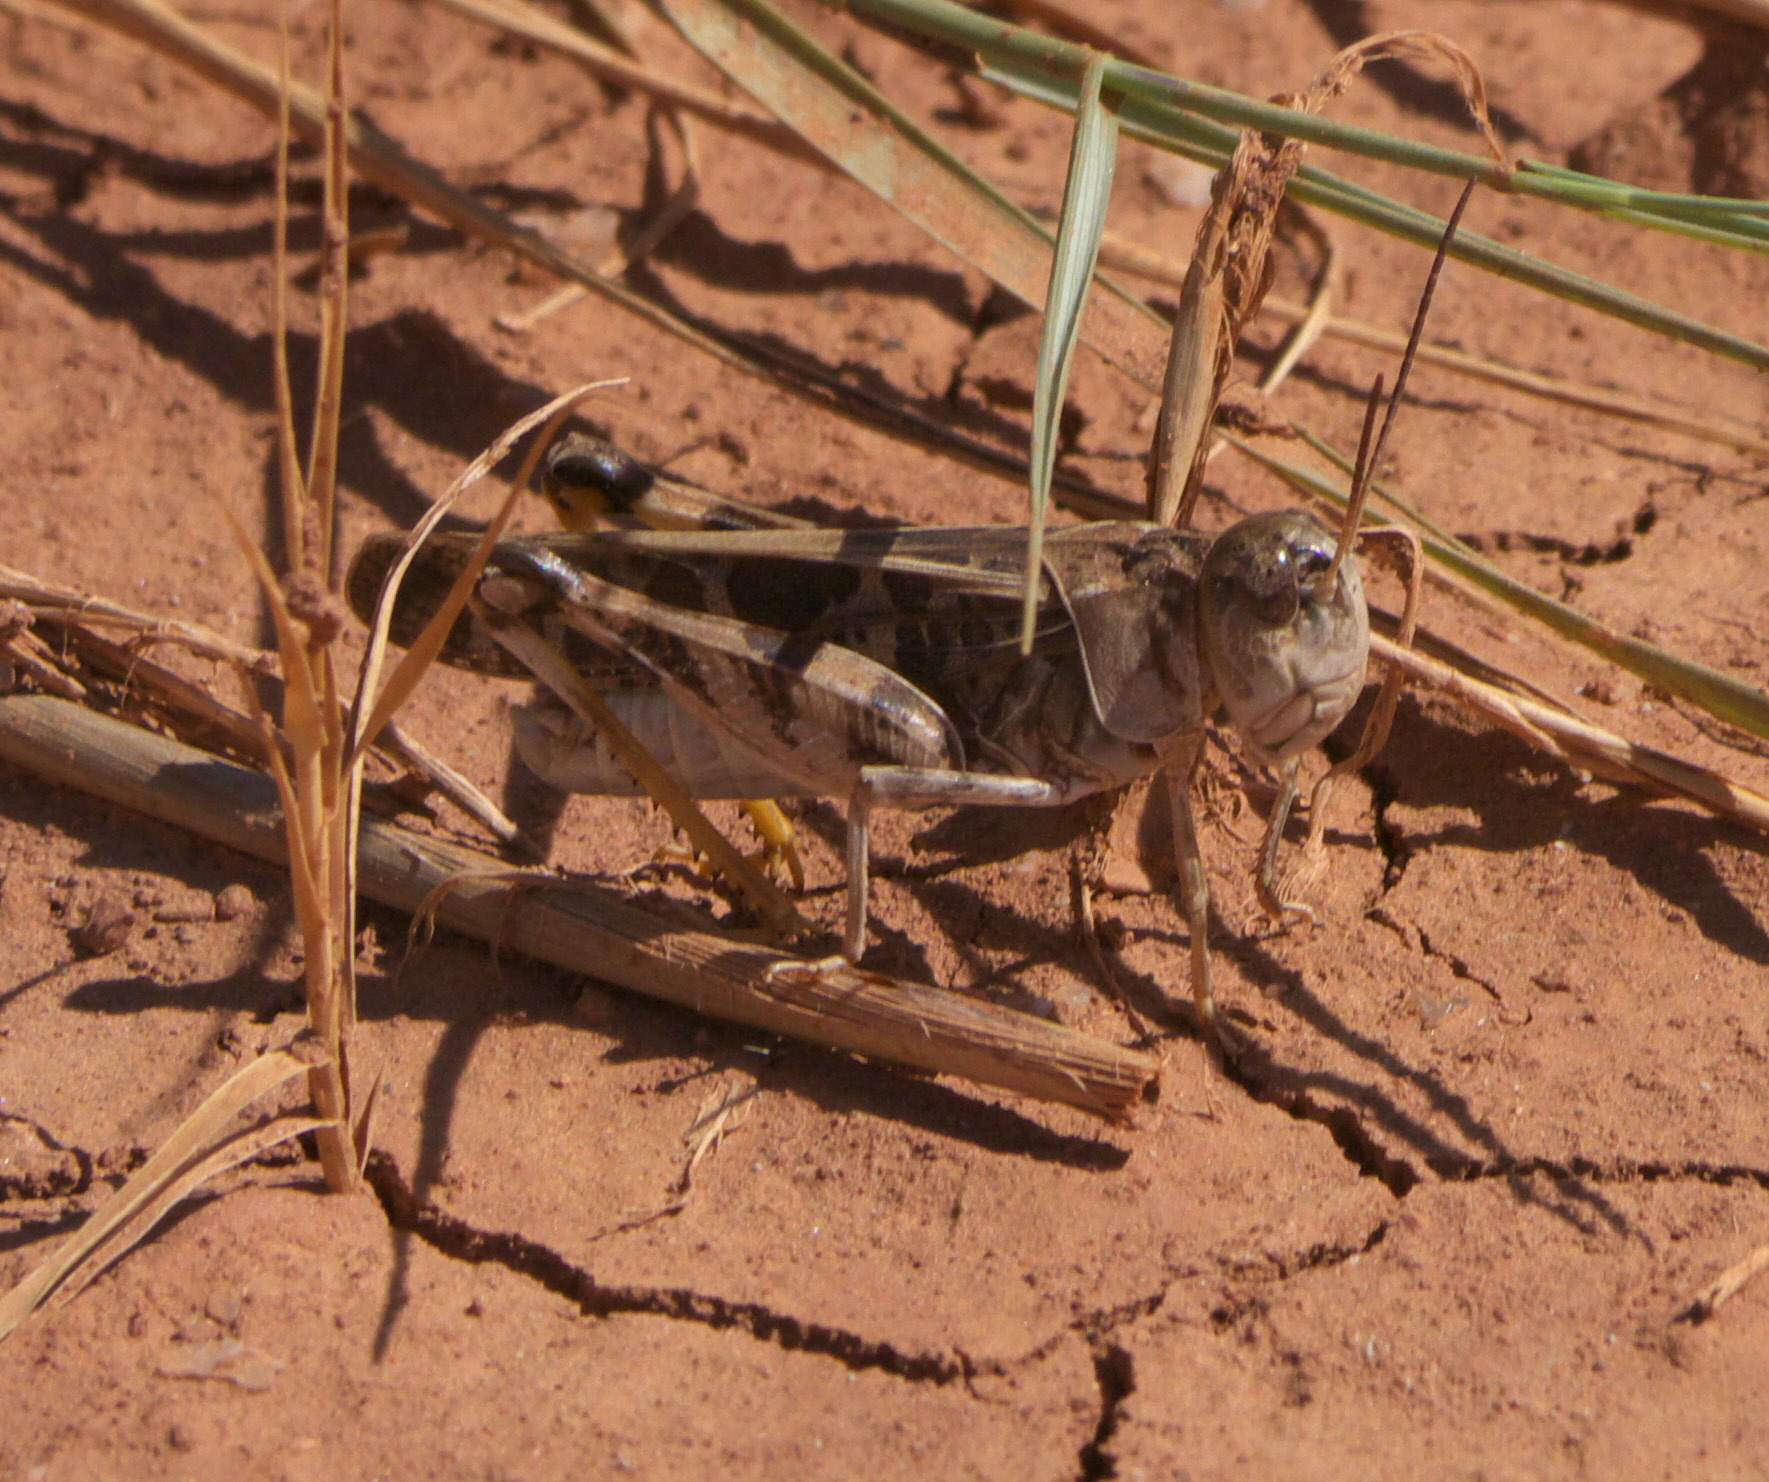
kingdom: Animalia
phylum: Arthropoda
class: Insecta
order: Orthoptera
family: Acrididae
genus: Hippiscus
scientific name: Hippiscus ocelote
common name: Wrinkled grasshopper
